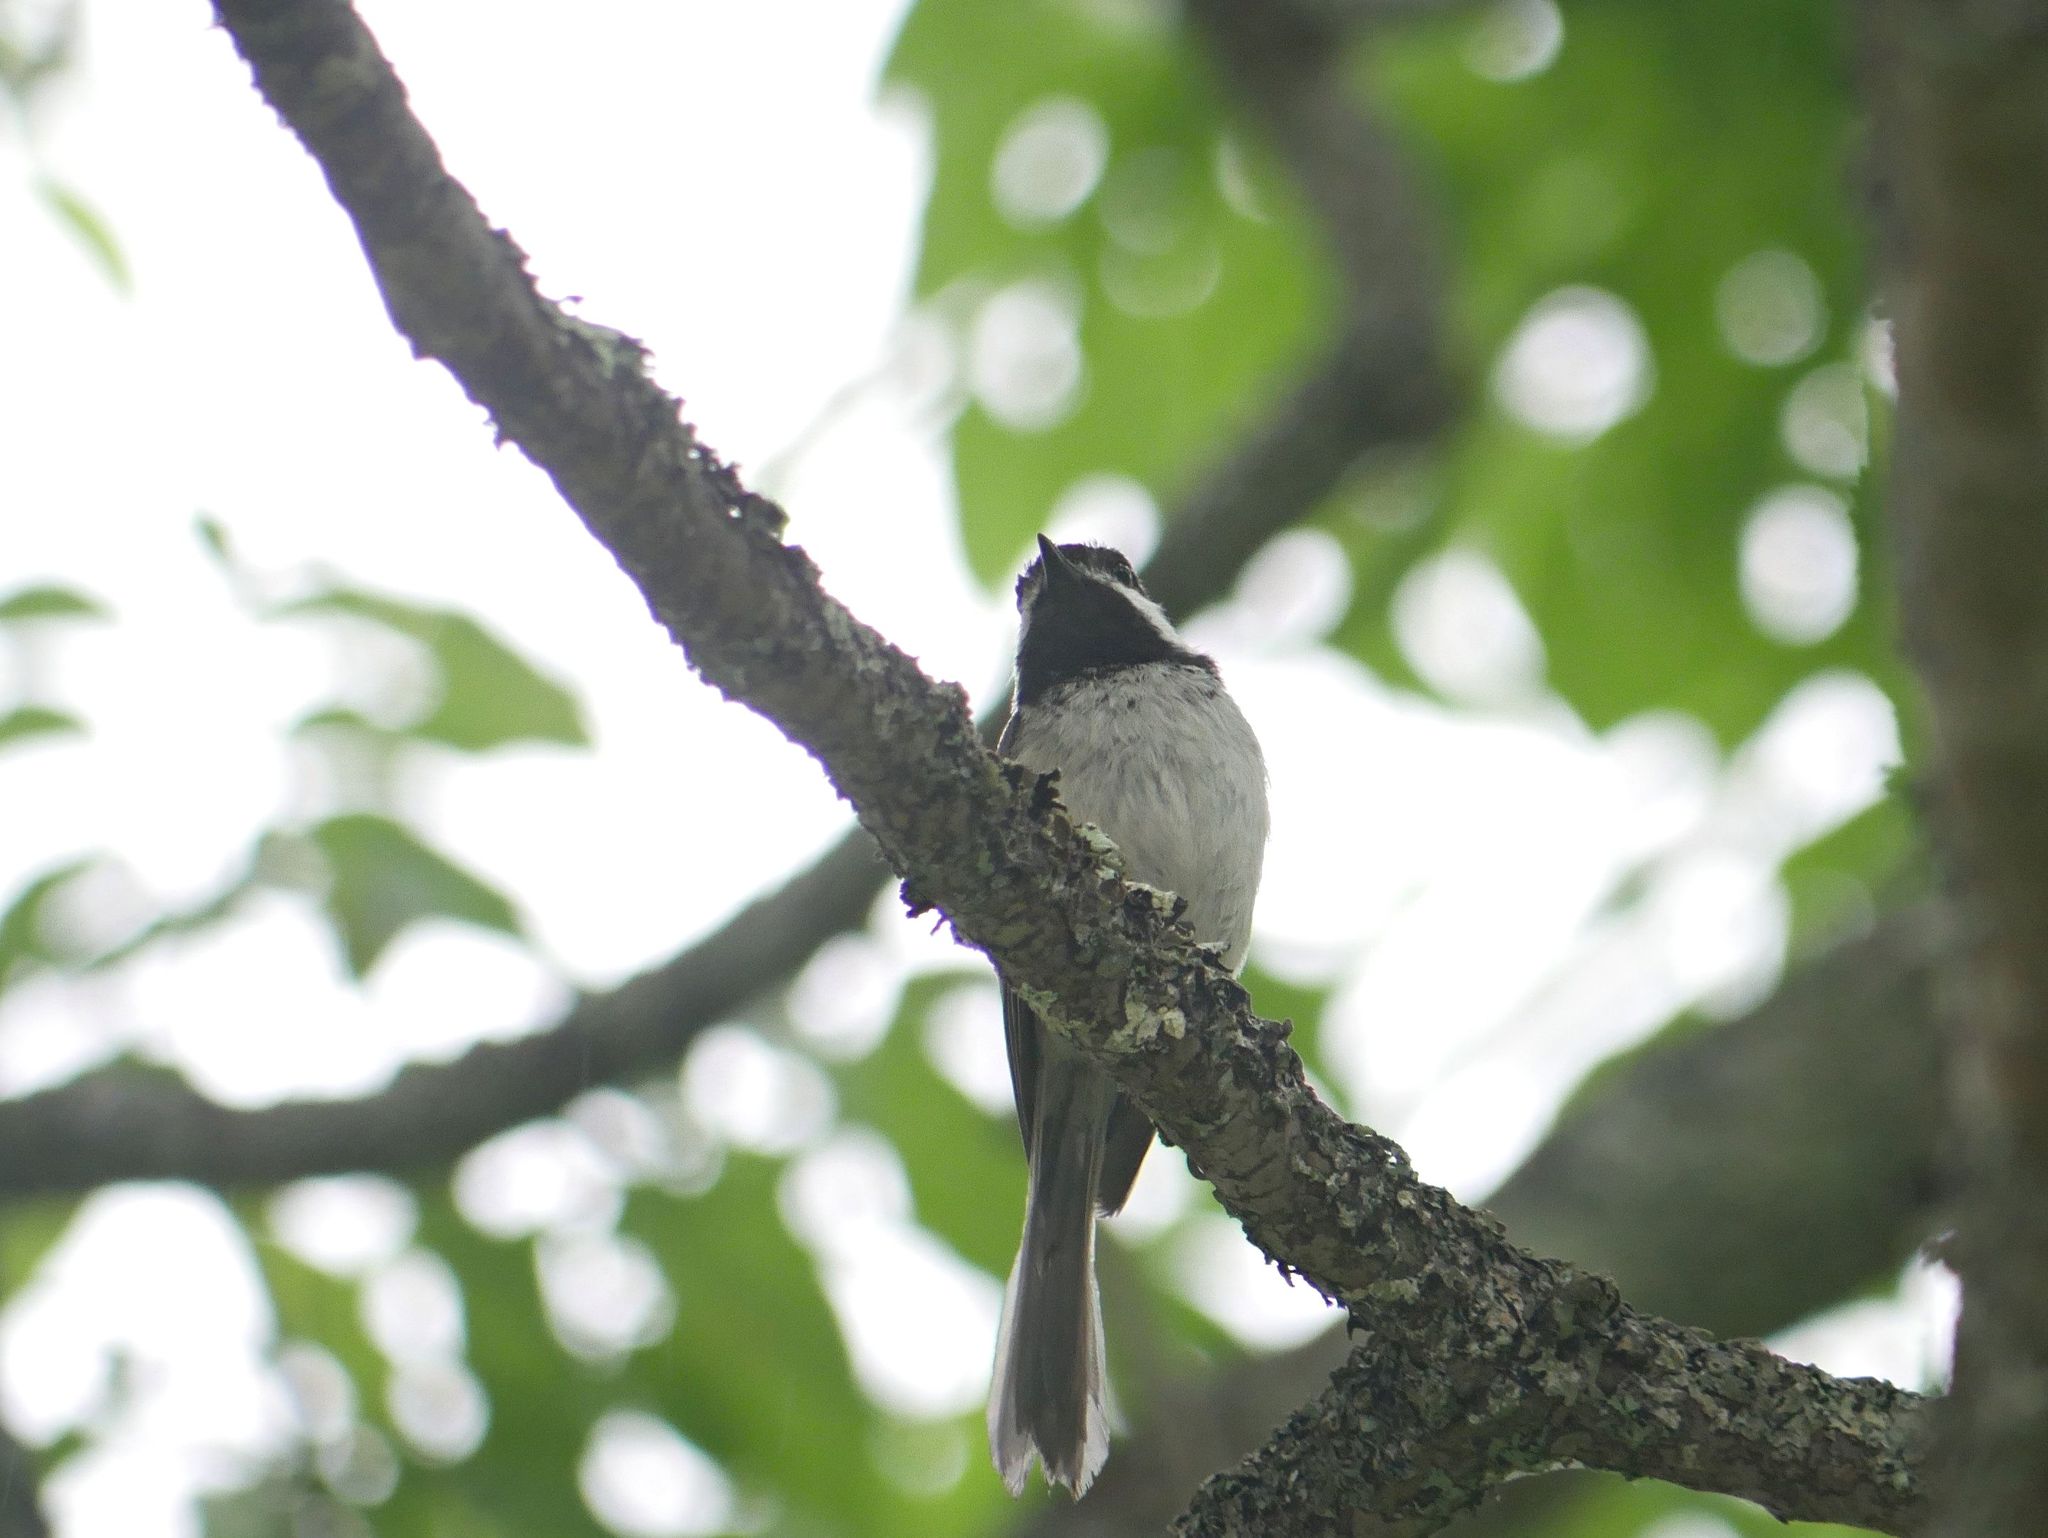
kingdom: Animalia
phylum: Chordata
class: Aves
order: Passeriformes
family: Paridae
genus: Poecile
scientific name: Poecile atricapillus
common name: Black-capped chickadee
